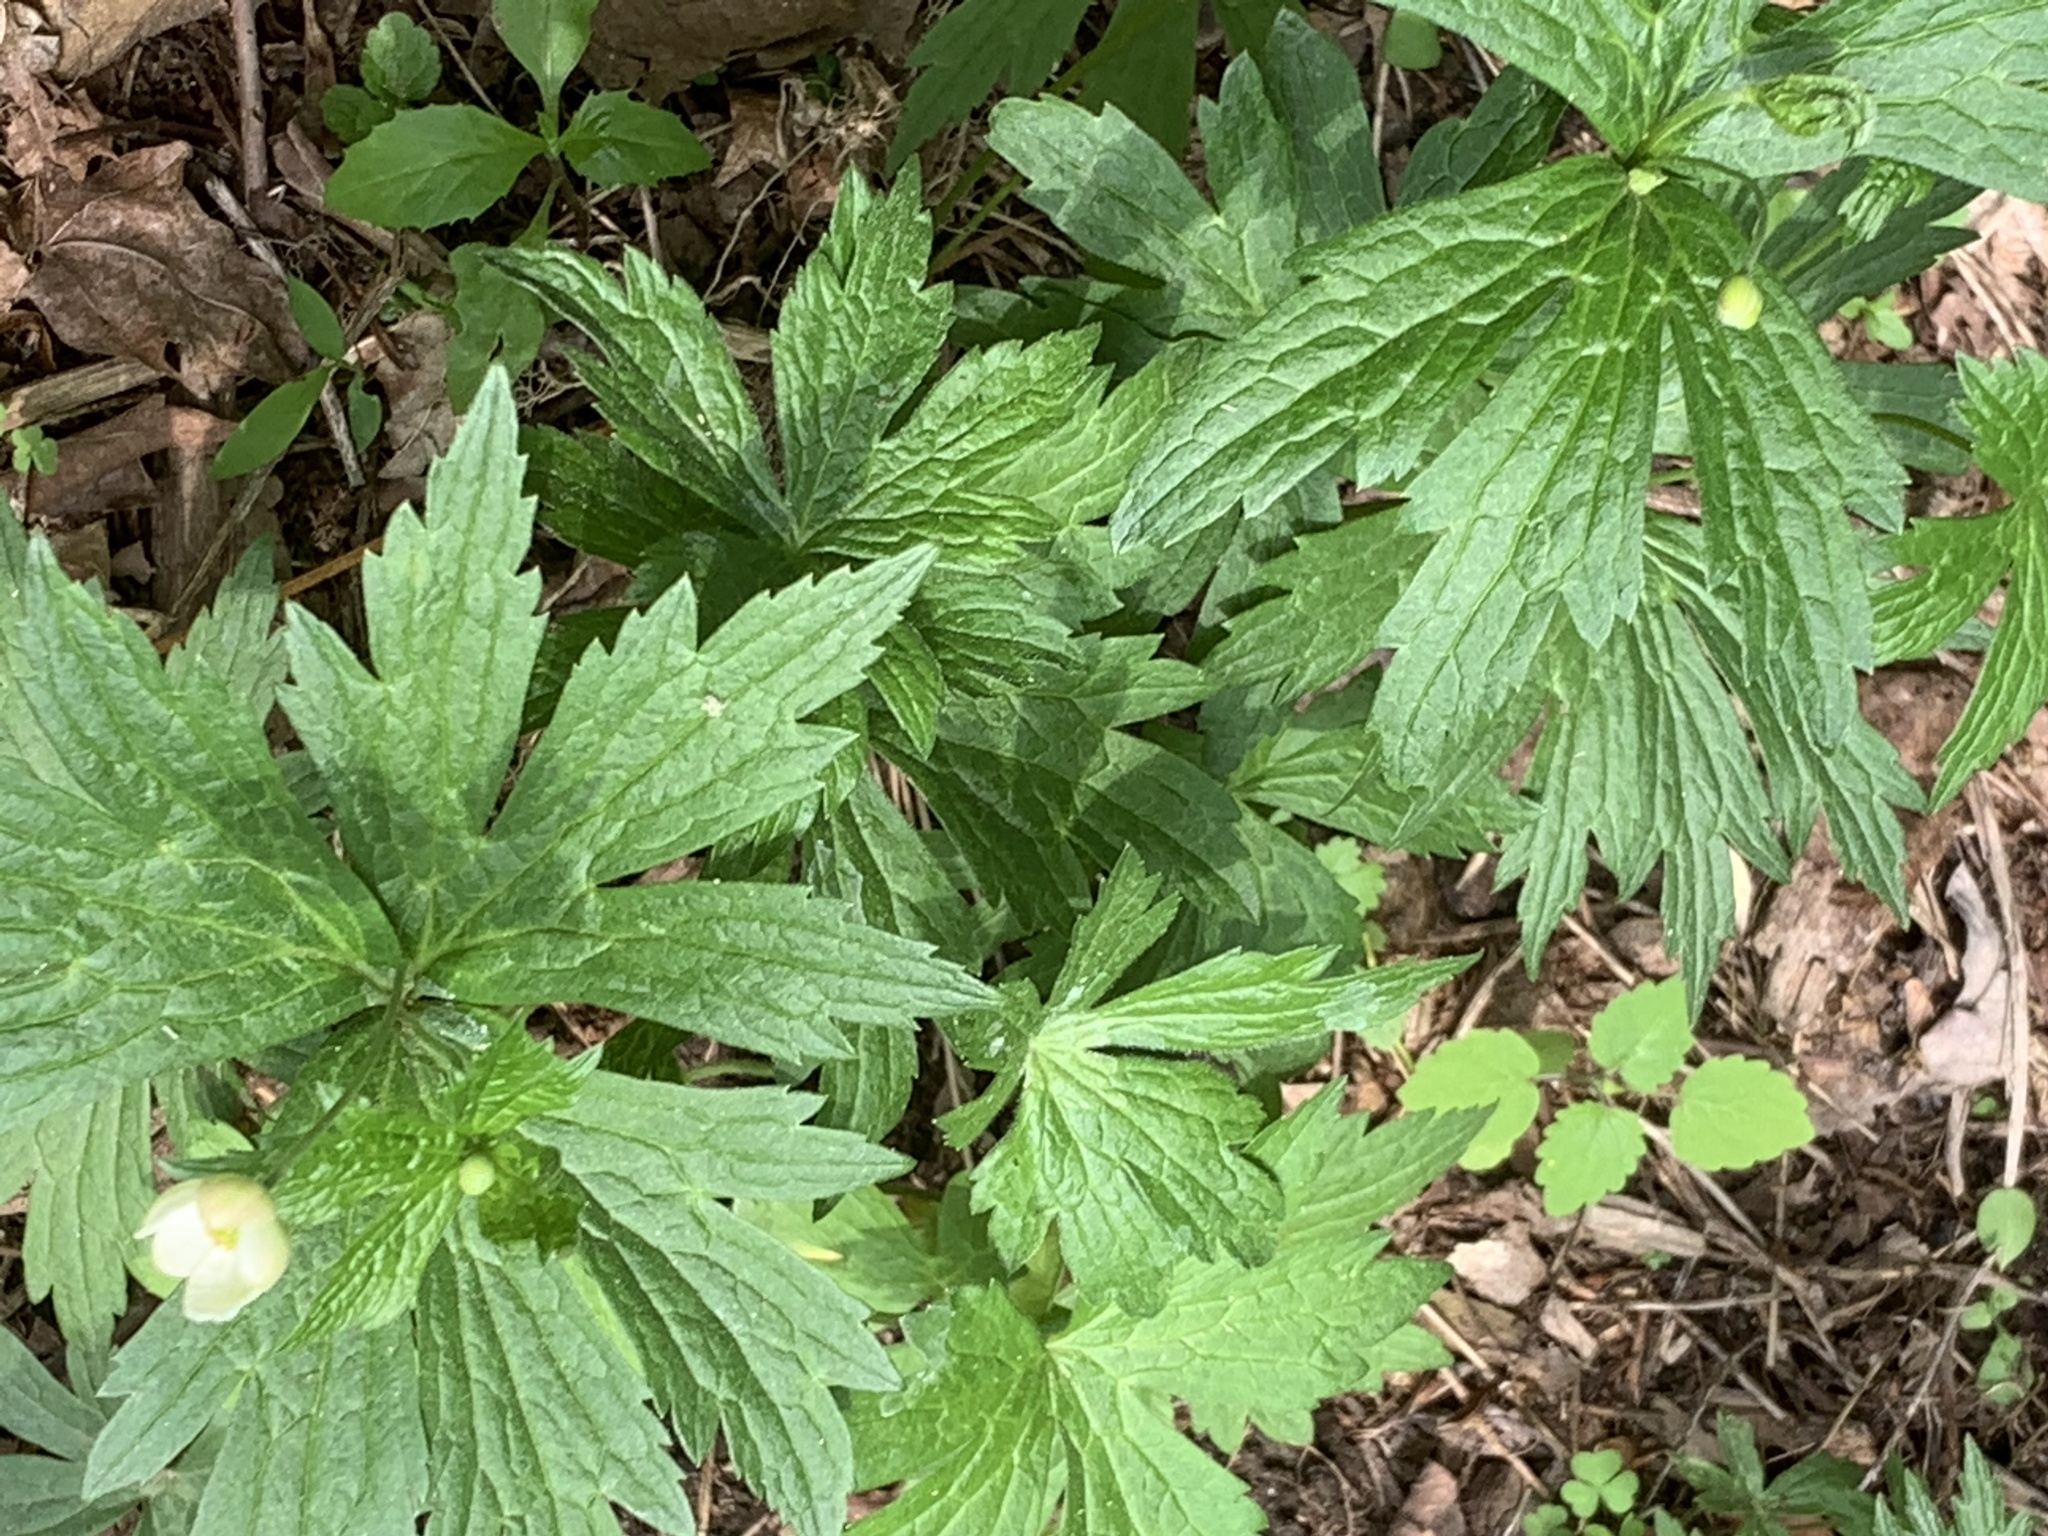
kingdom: Plantae
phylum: Tracheophyta
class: Magnoliopsida
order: Ranunculales
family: Ranunculaceae
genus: Anemonastrum
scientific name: Anemonastrum canadense
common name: Canada anemone
